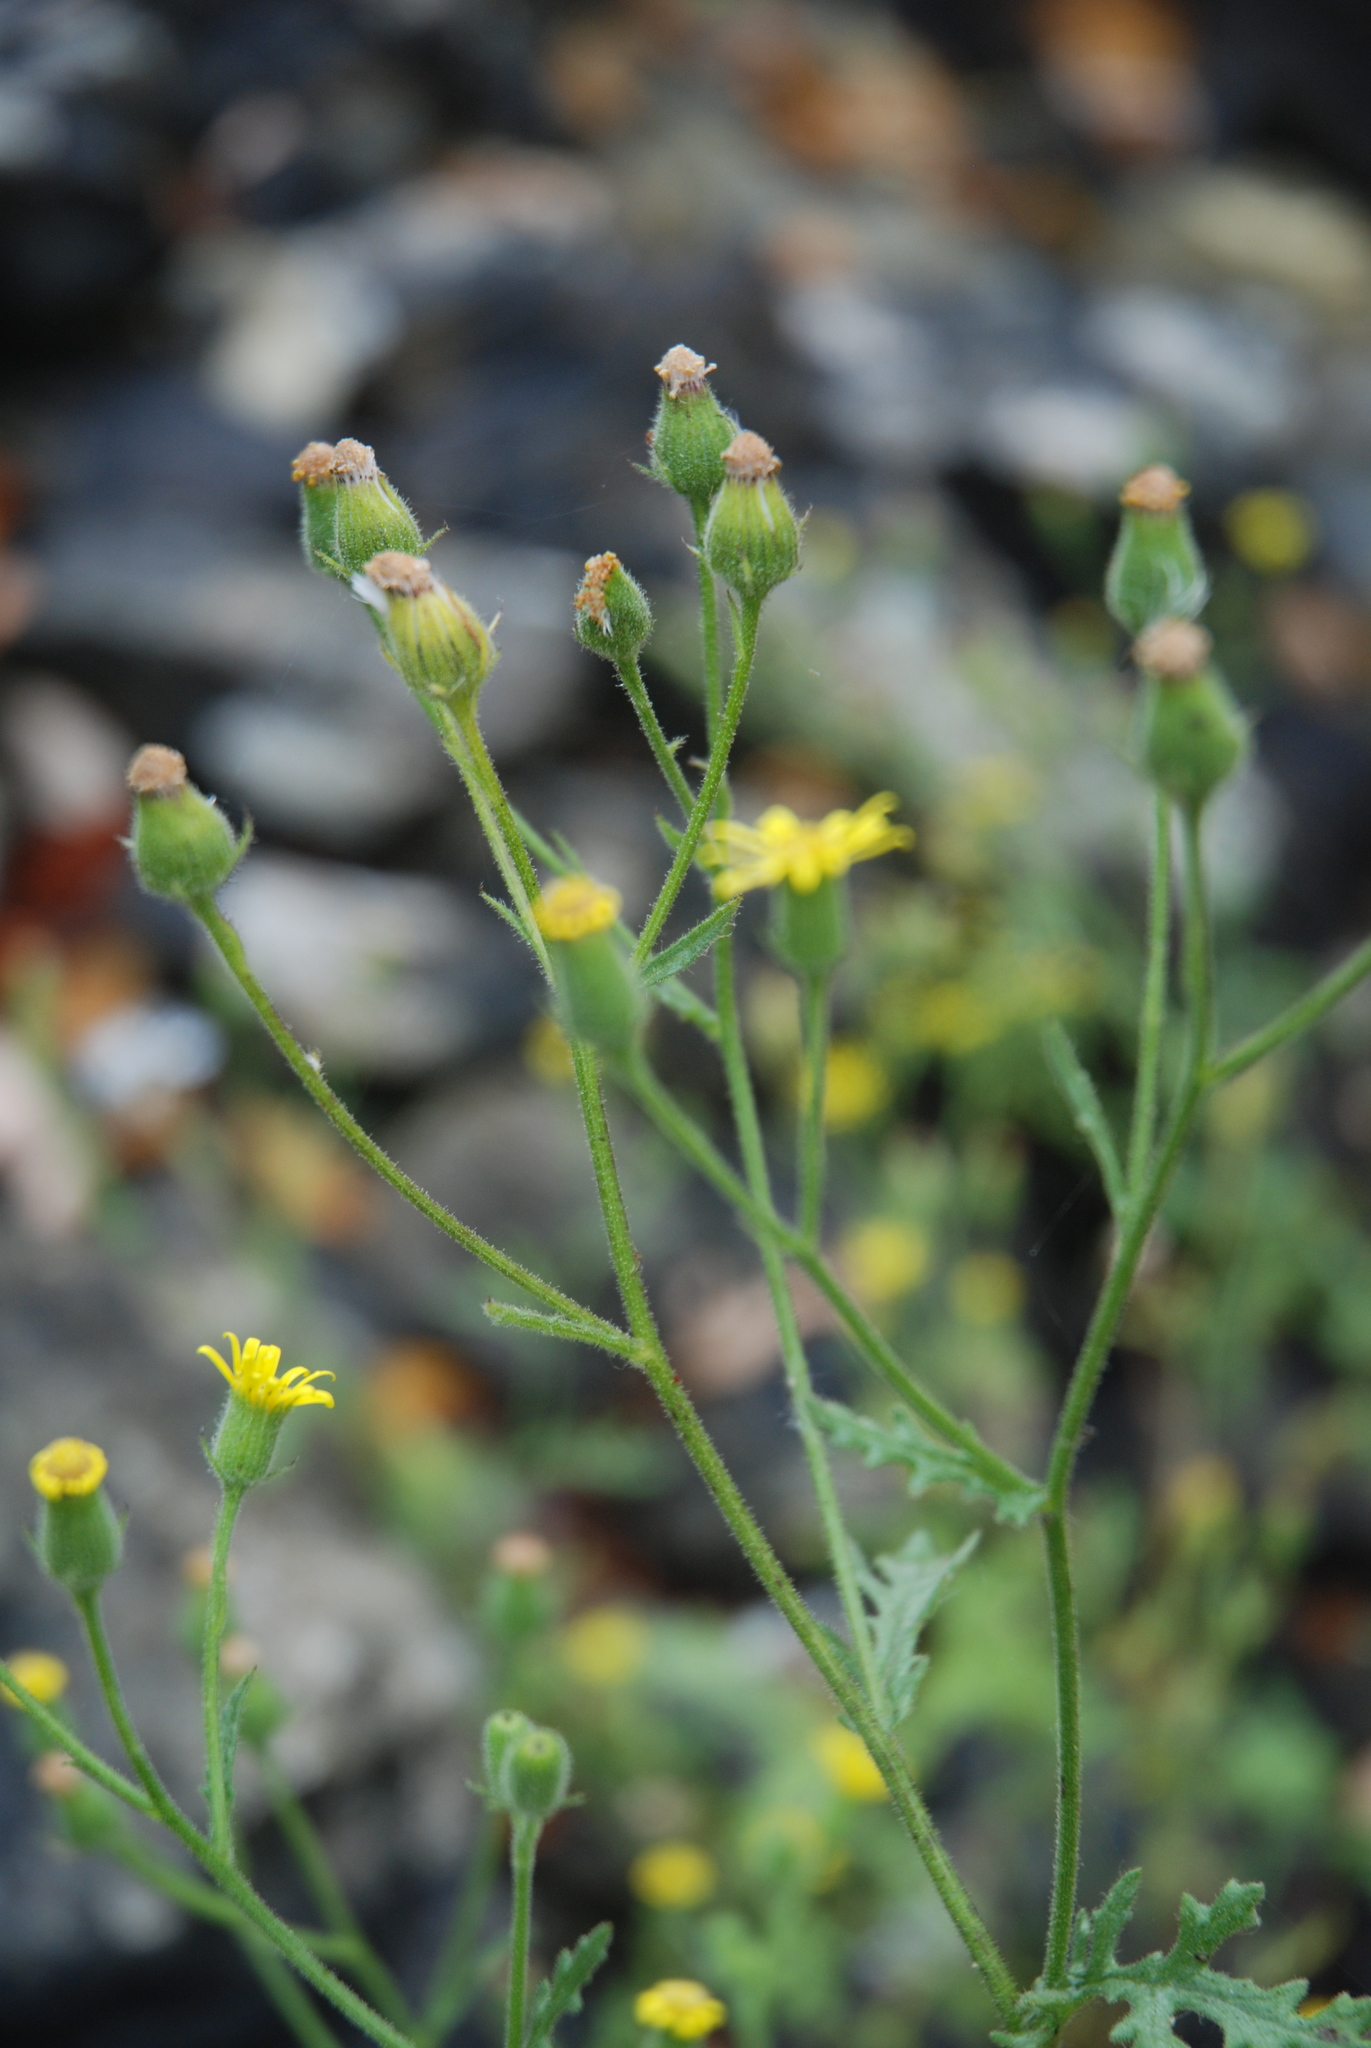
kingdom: Plantae
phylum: Tracheophyta
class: Magnoliopsida
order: Asterales
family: Asteraceae
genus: Senecio
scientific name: Senecio viscosus
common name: Sticky groundsel
